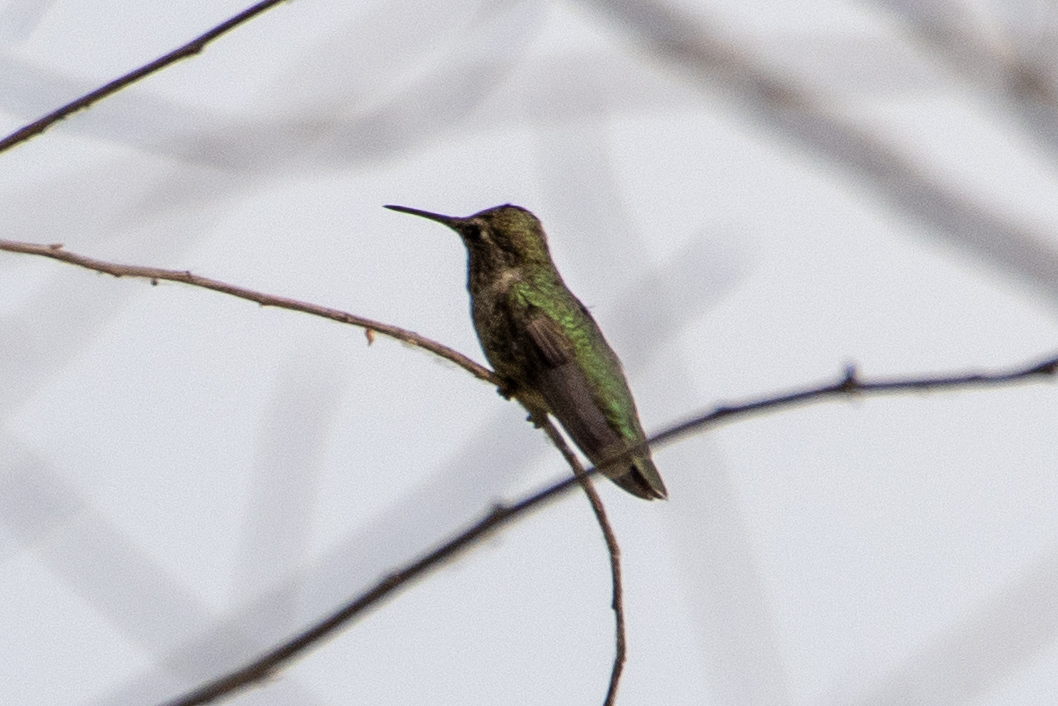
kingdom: Animalia
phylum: Chordata
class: Aves
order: Apodiformes
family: Trochilidae
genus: Calypte
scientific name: Calypte anna
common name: Anna's hummingbird
